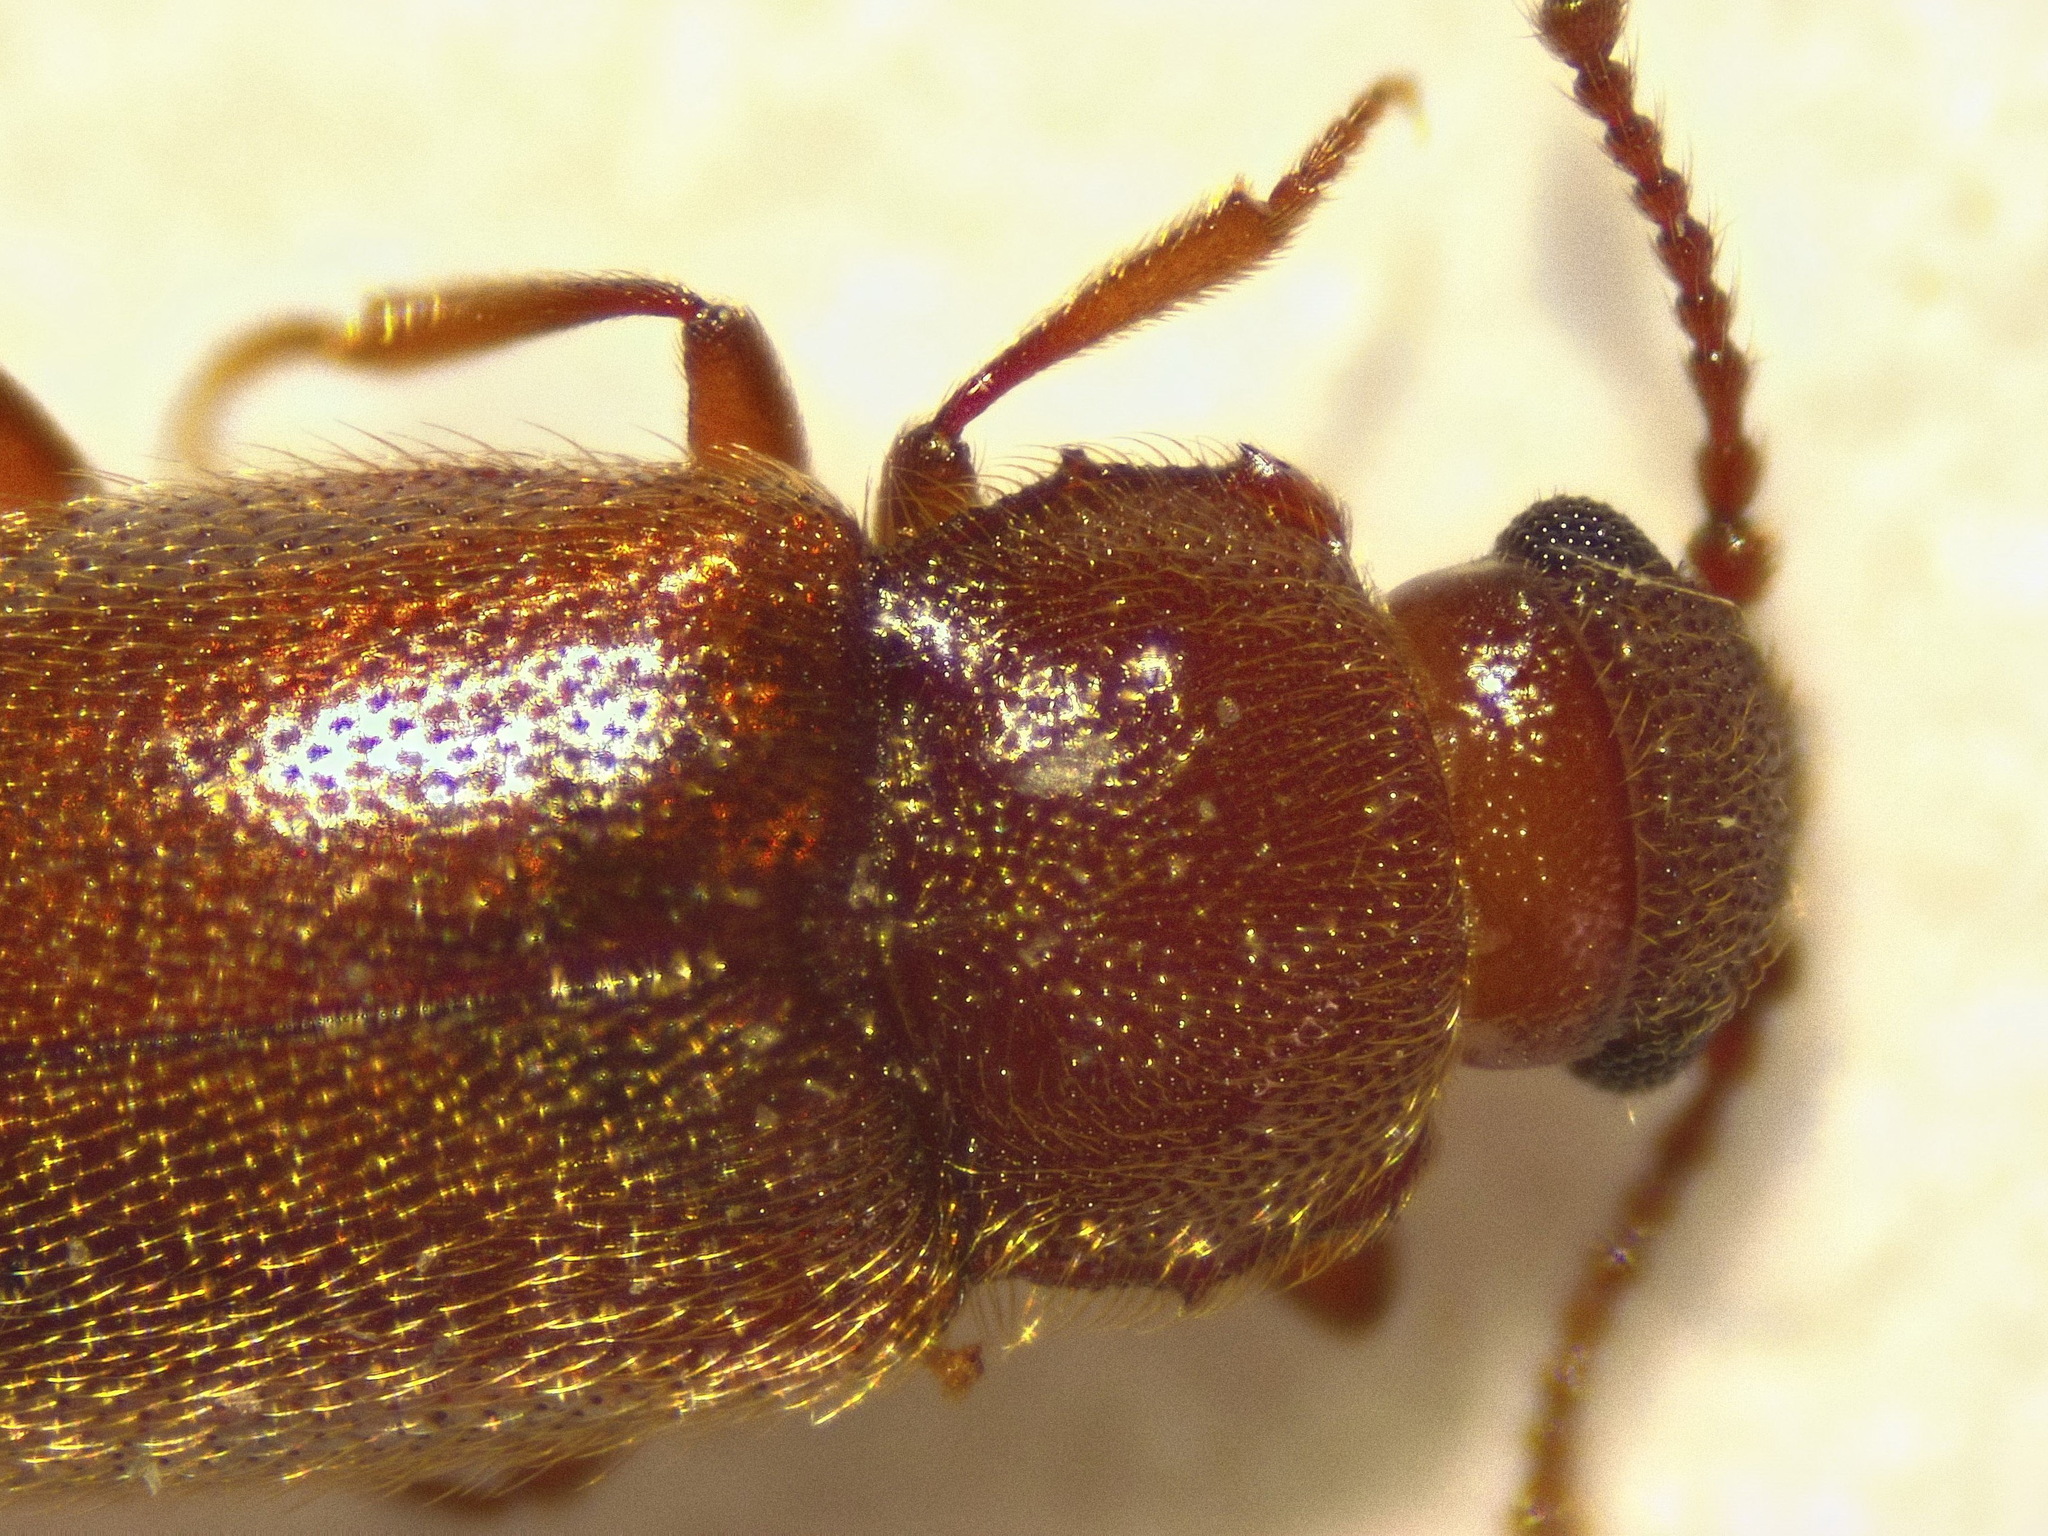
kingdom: Animalia
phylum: Arthropoda
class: Insecta
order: Coleoptera
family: Cryptophagidae
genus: Cryptophagus
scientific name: Cryptophagus pilosus
